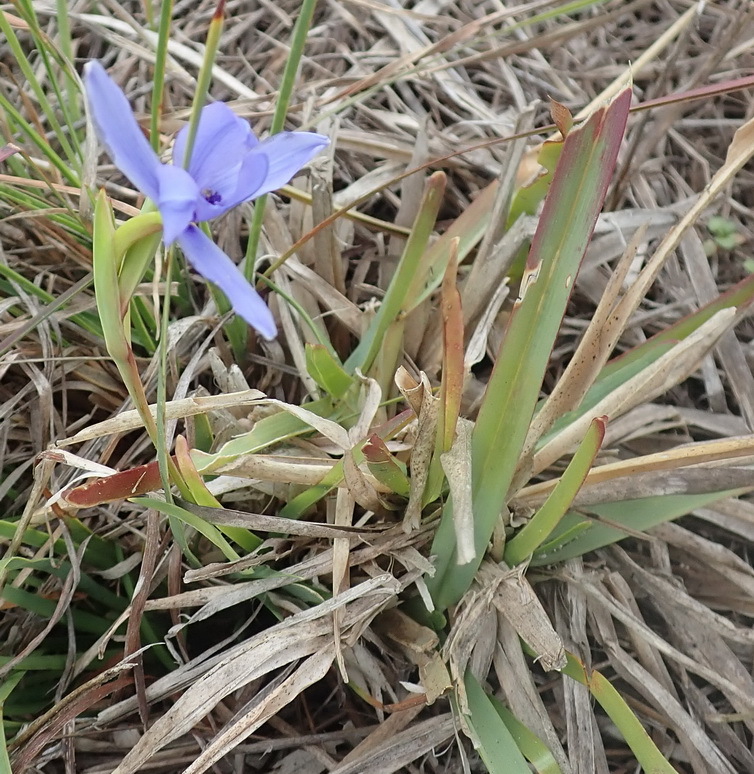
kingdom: Plantae
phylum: Tracheophyta
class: Liliopsida
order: Asparagales
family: Iridaceae
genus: Aristea
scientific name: Aristea pusilla
